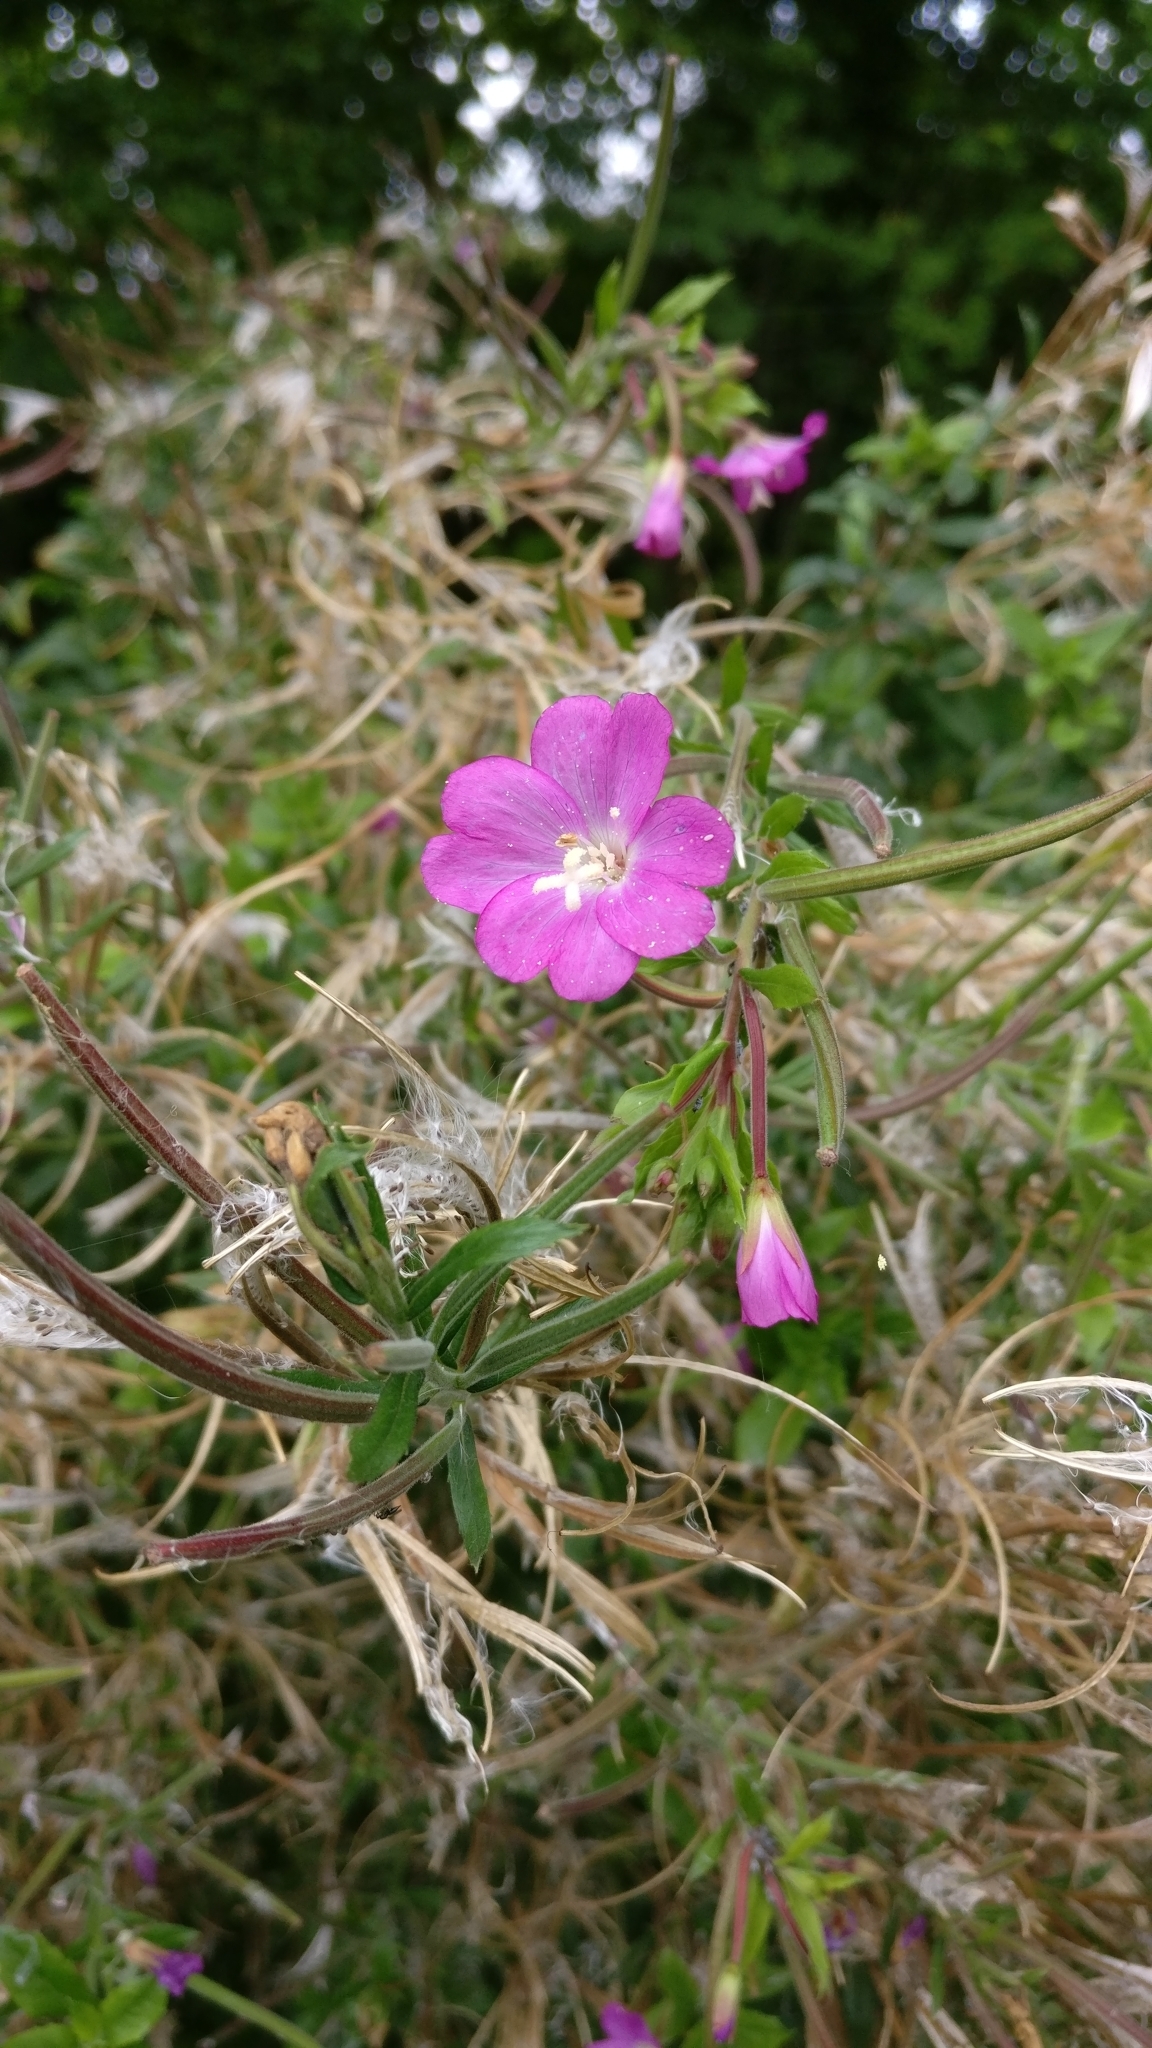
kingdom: Plantae
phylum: Tracheophyta
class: Magnoliopsida
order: Myrtales
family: Onagraceae
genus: Epilobium
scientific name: Epilobium hirsutum
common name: Great willowherb
